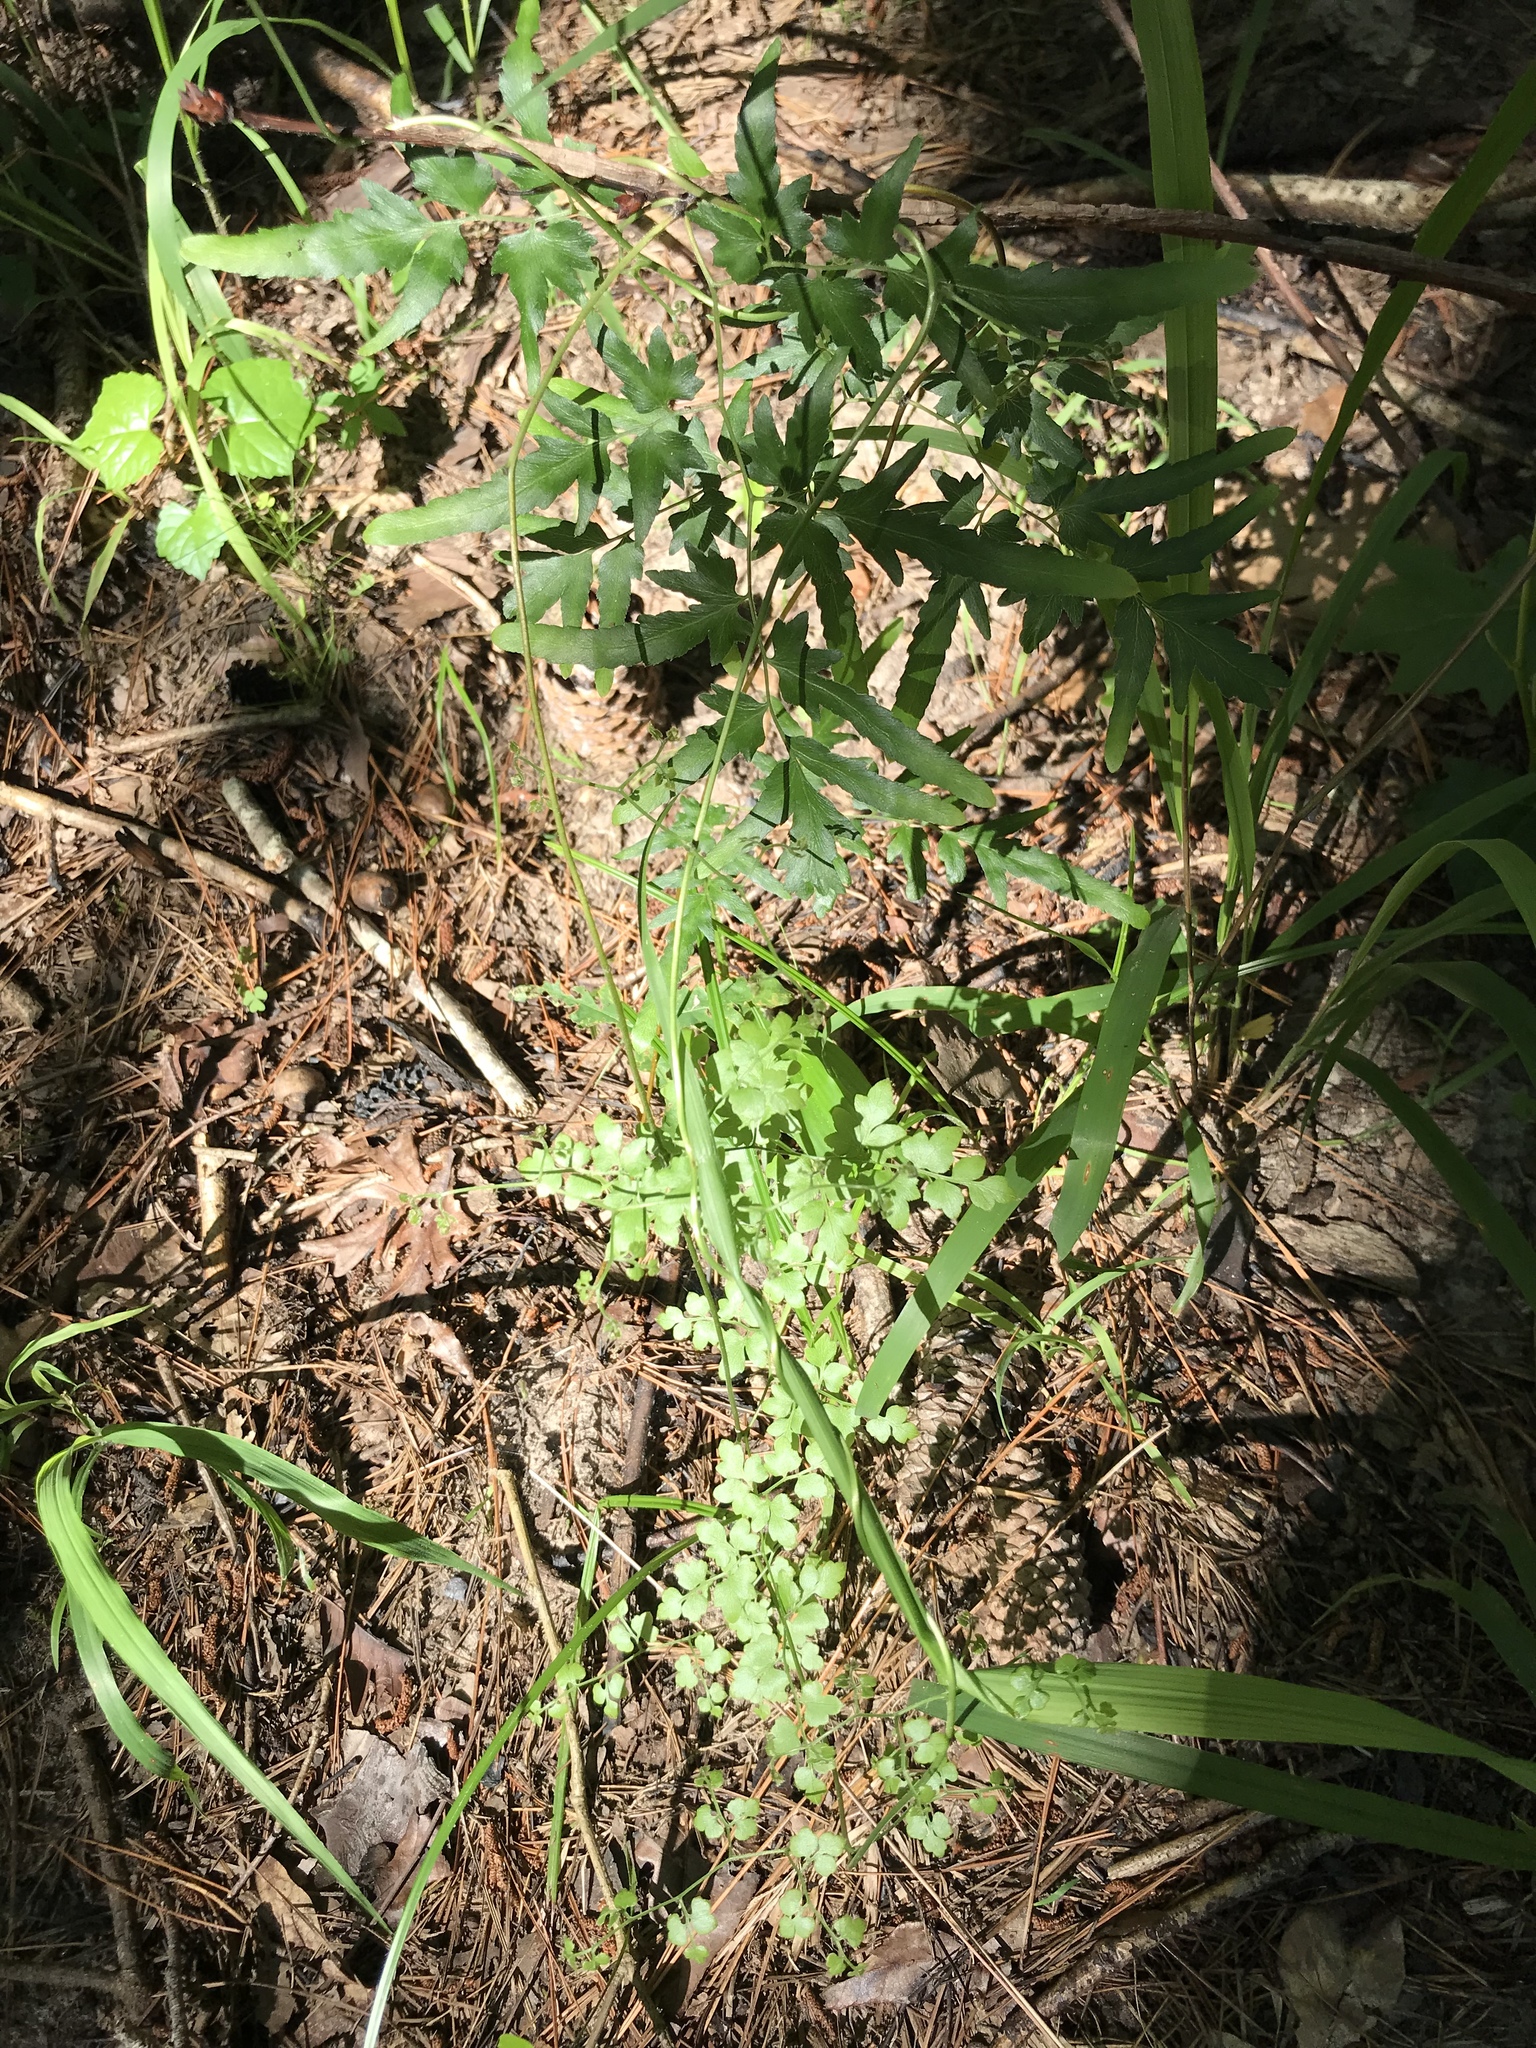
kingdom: Plantae
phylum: Tracheophyta
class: Polypodiopsida
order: Schizaeales
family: Lygodiaceae
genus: Lygodium
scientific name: Lygodium japonicum
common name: Japanese climbing fern
